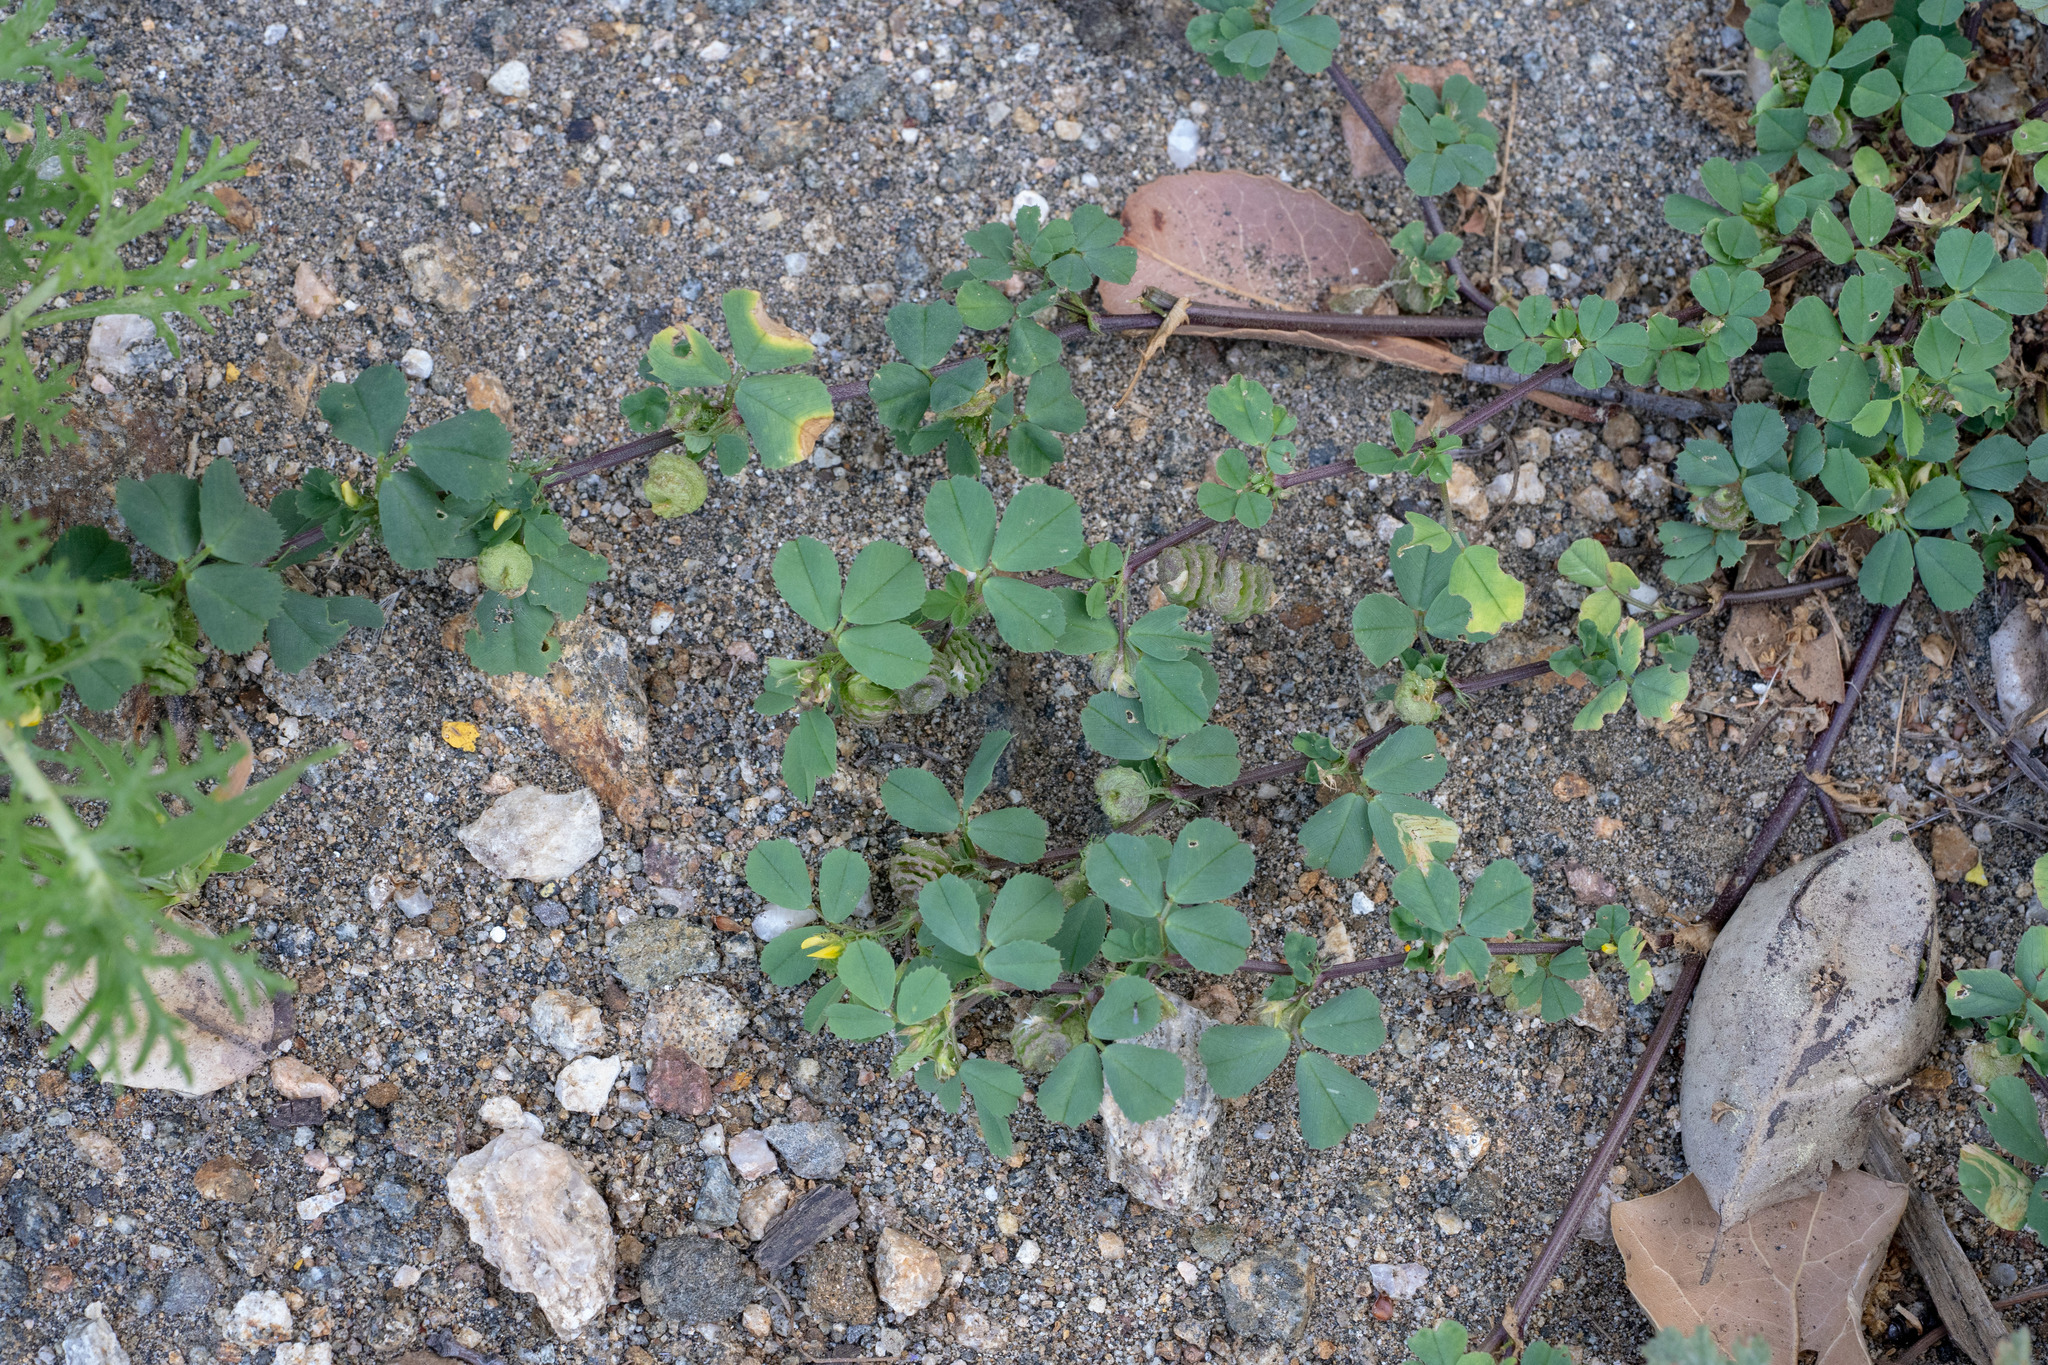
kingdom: Plantae
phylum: Tracheophyta
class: Magnoliopsida
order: Fabales
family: Fabaceae
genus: Medicago
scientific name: Medicago polymorpha
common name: Burclover
